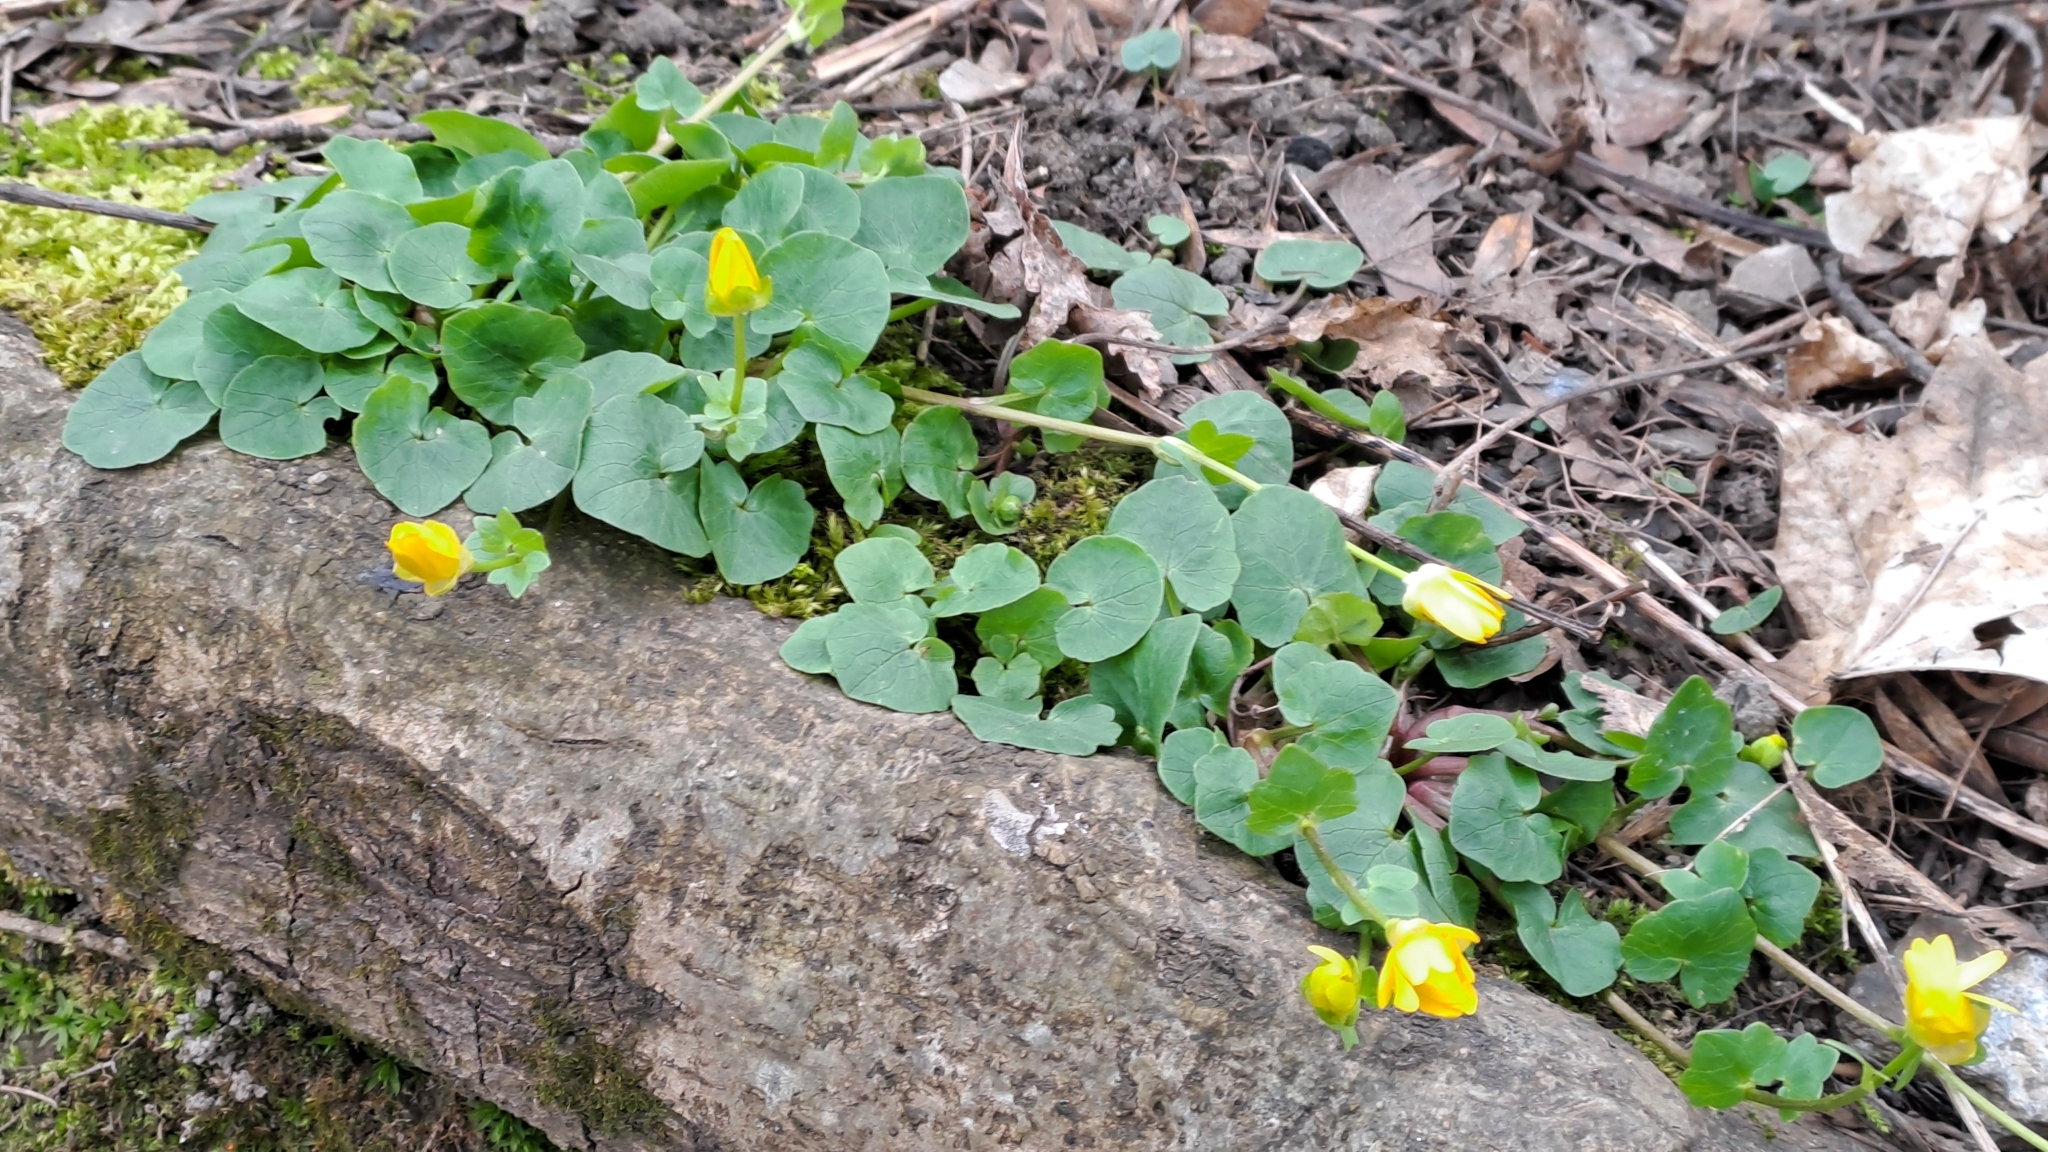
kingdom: Plantae
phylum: Tracheophyta
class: Magnoliopsida
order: Ranunculales
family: Ranunculaceae
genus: Ficaria
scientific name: Ficaria verna
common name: Lesser celandine
